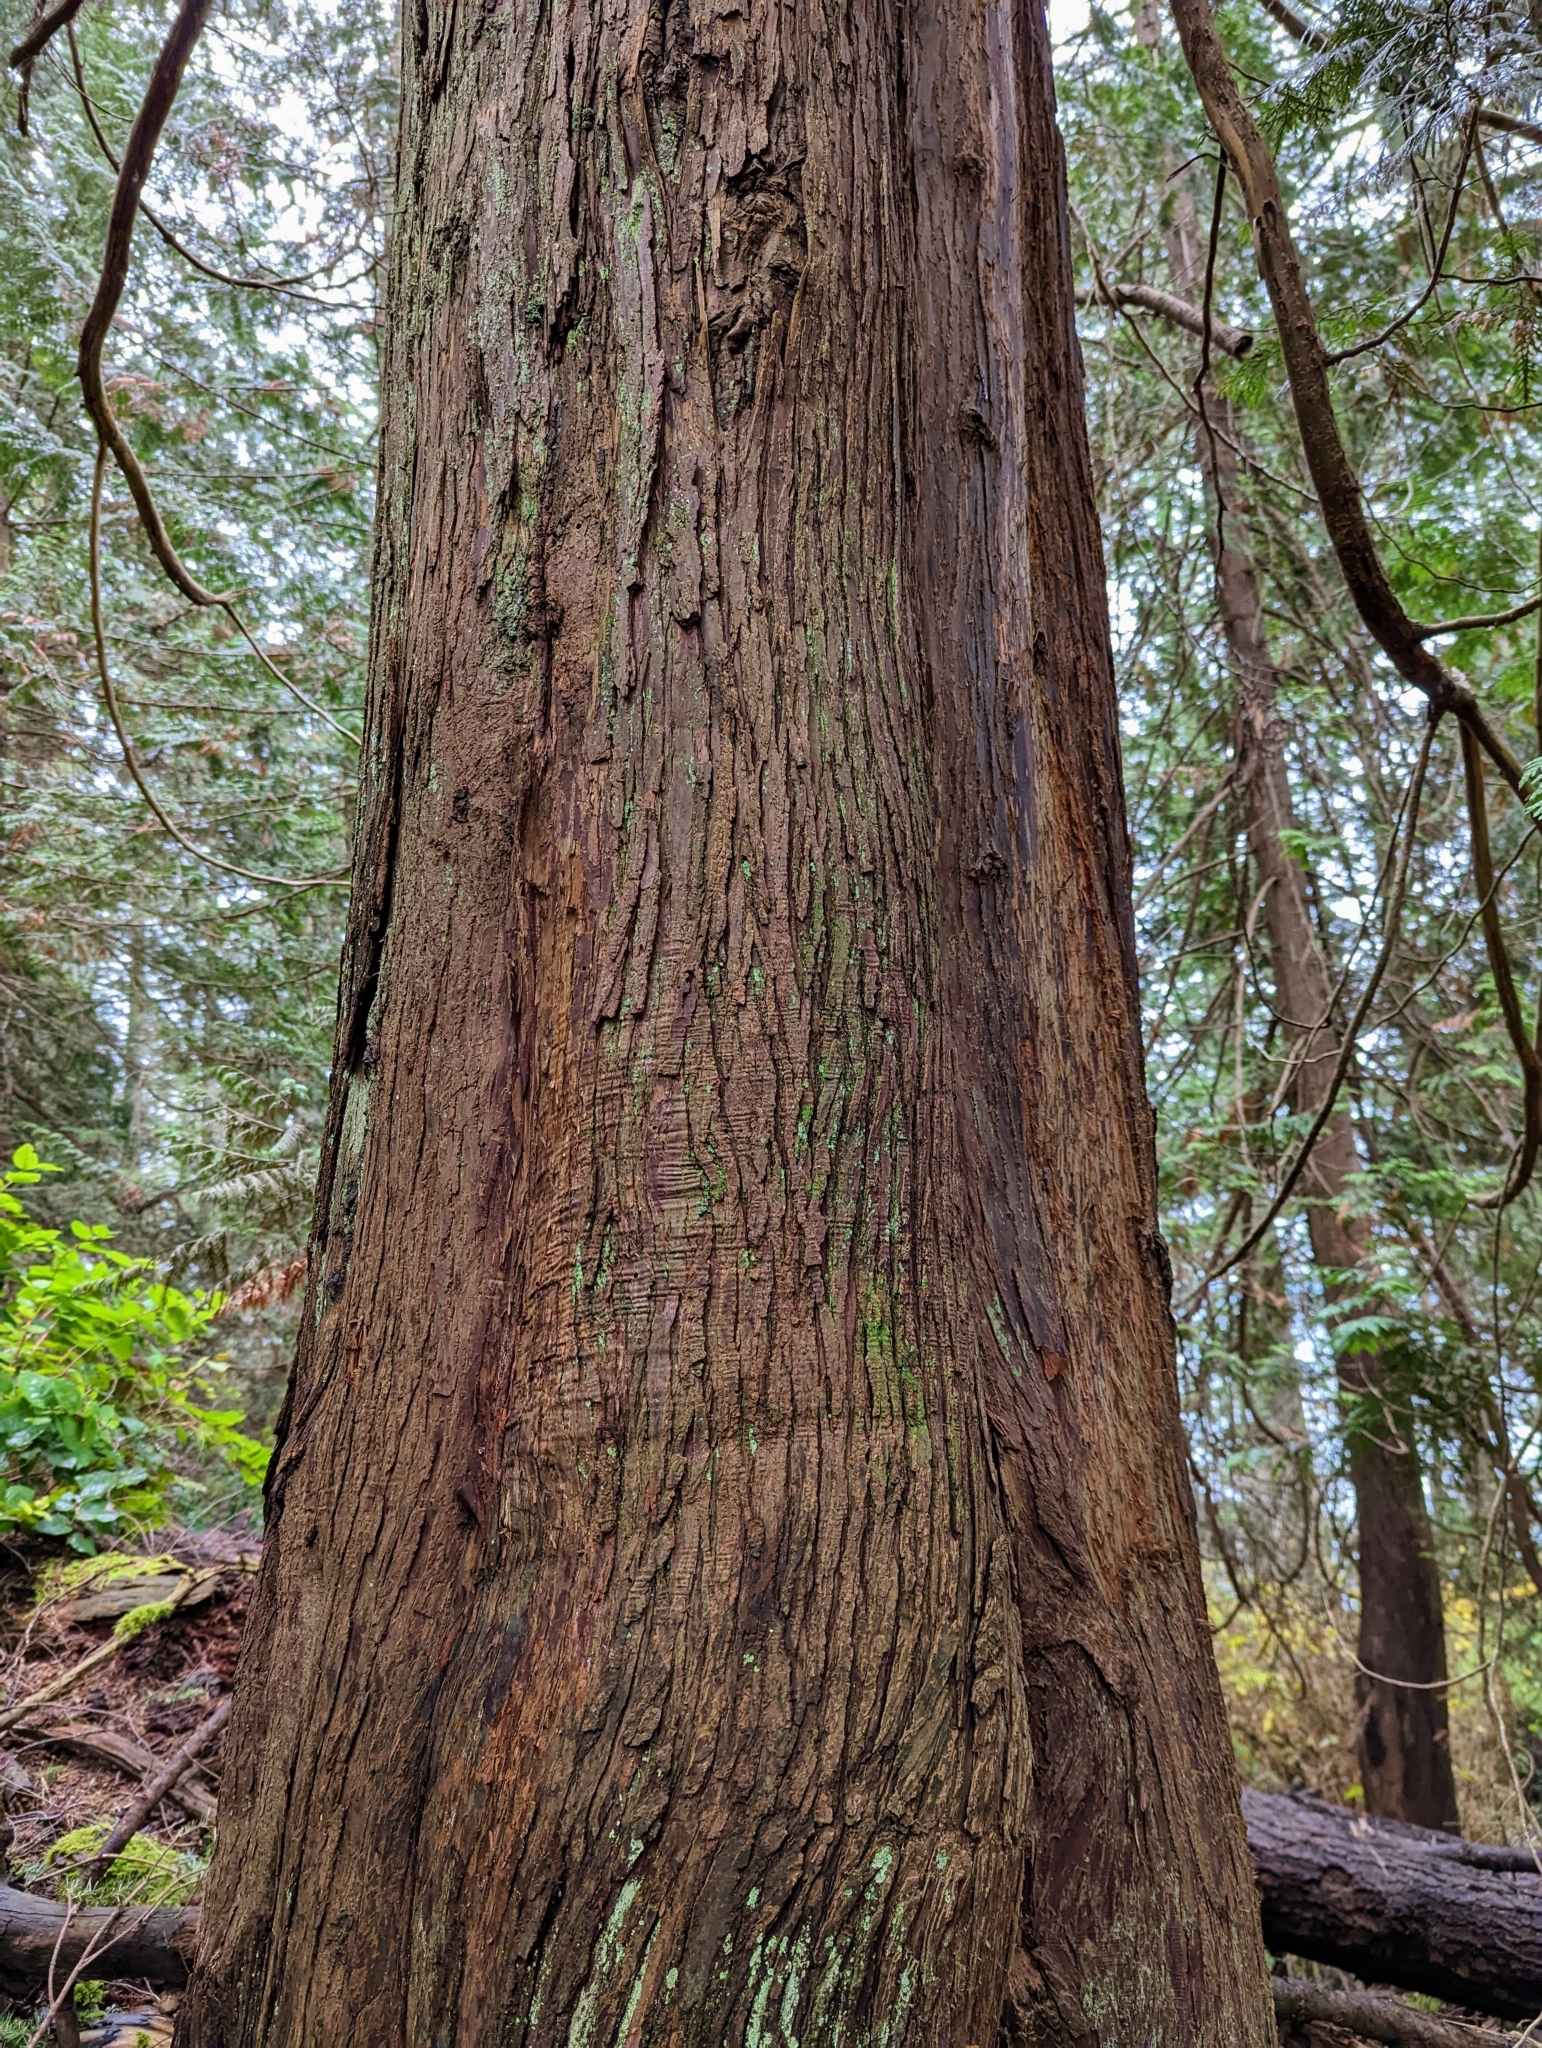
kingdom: Plantae
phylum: Tracheophyta
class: Pinopsida
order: Pinales
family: Cupressaceae
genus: Thuja
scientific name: Thuja plicata
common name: Western red-cedar
